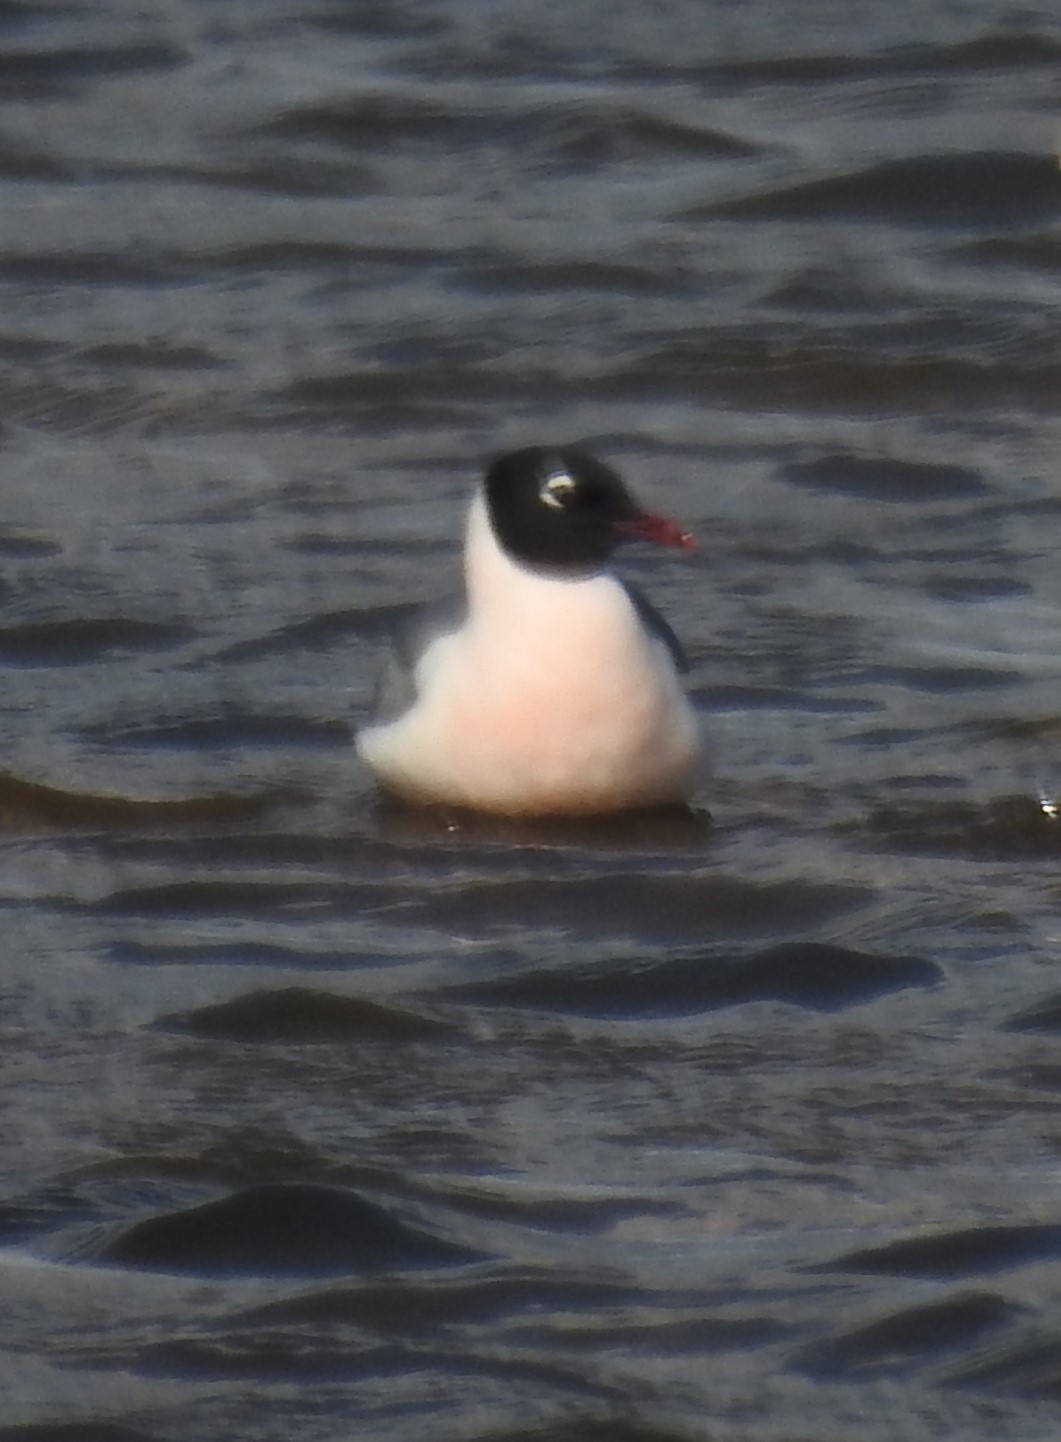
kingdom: Animalia
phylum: Chordata
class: Aves
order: Charadriiformes
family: Laridae
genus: Leucophaeus
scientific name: Leucophaeus pipixcan
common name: Franklin's gull
